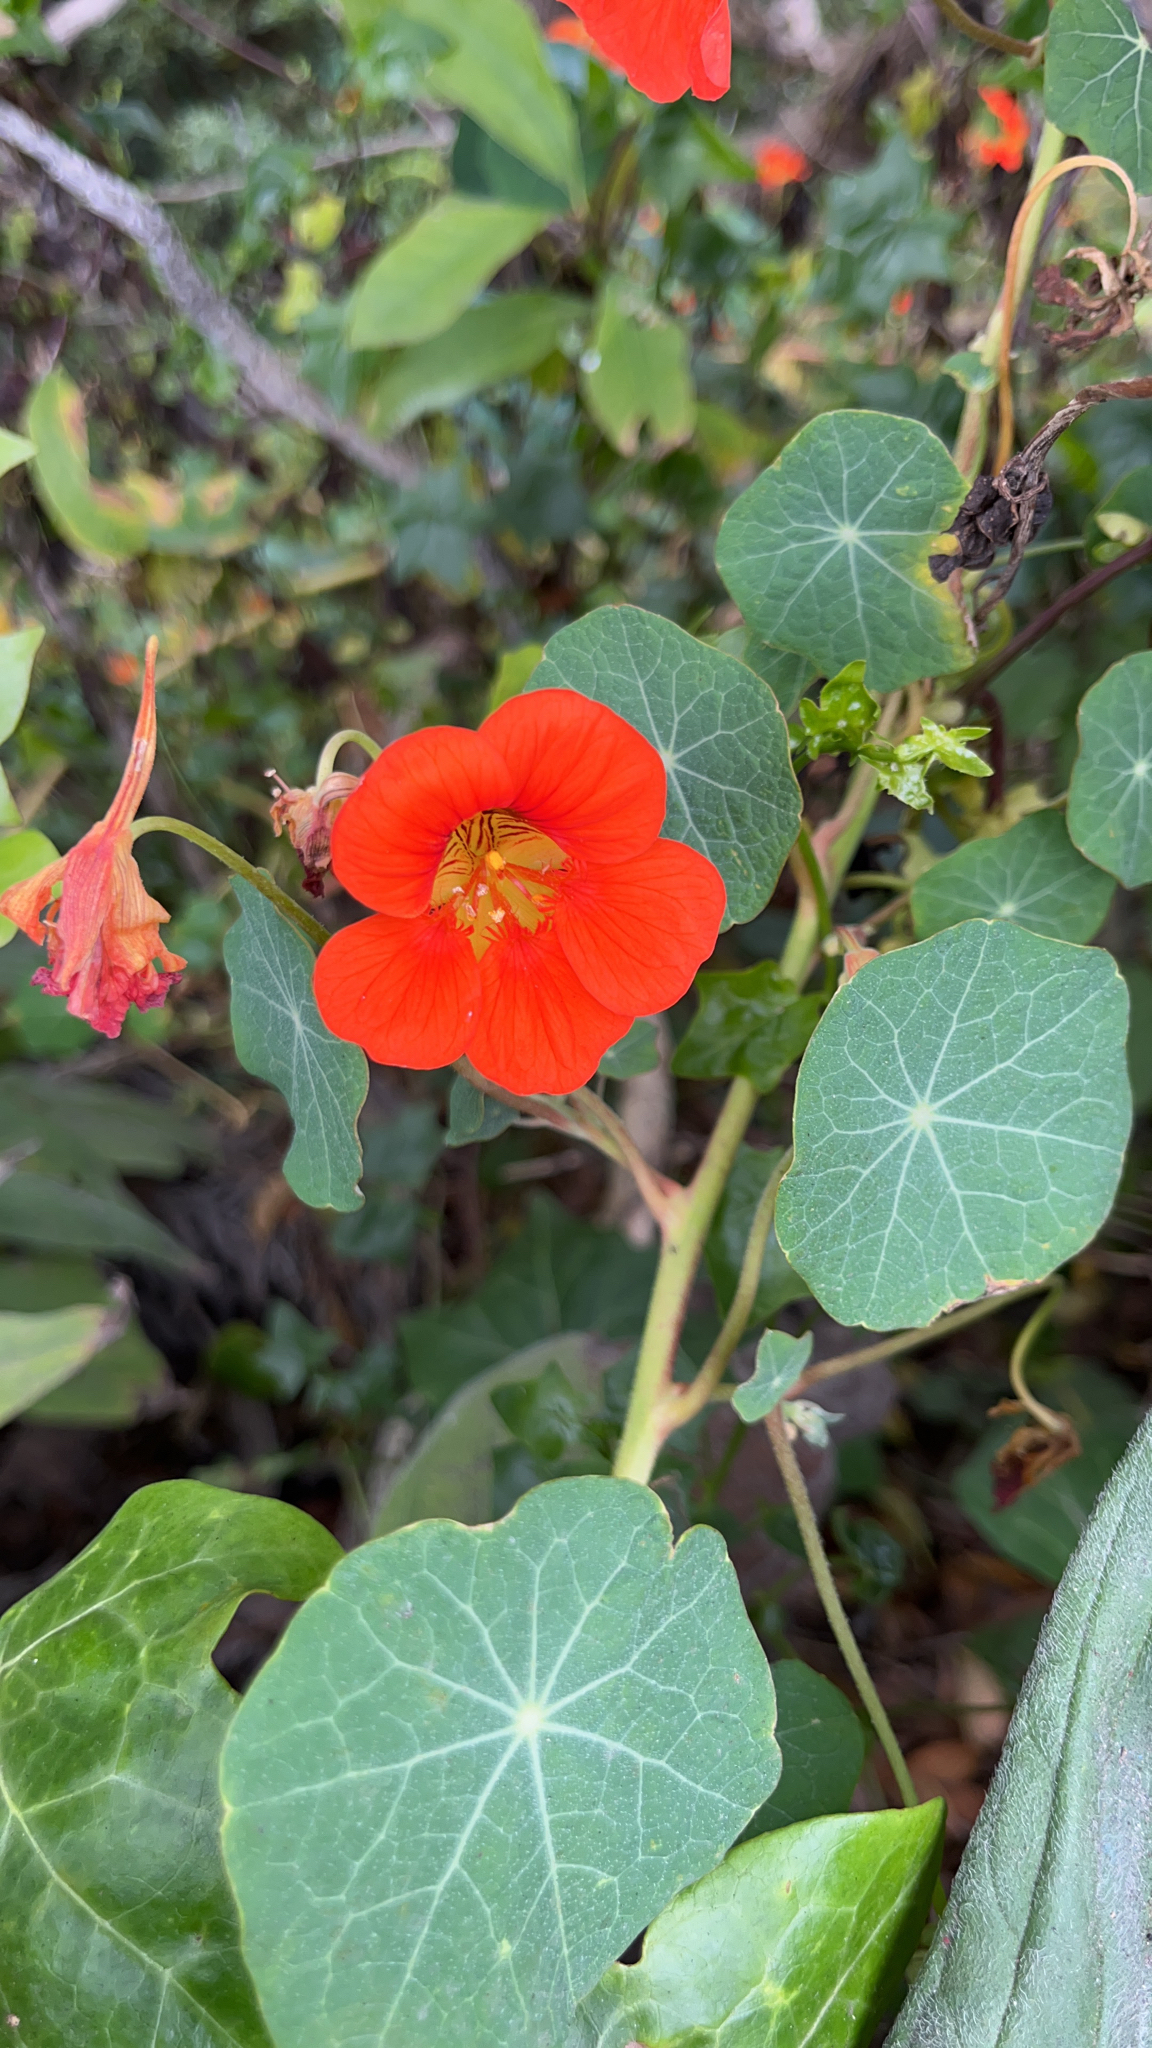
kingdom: Plantae
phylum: Tracheophyta
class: Magnoliopsida
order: Brassicales
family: Tropaeolaceae
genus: Tropaeolum
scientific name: Tropaeolum majus
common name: Nasturtium
